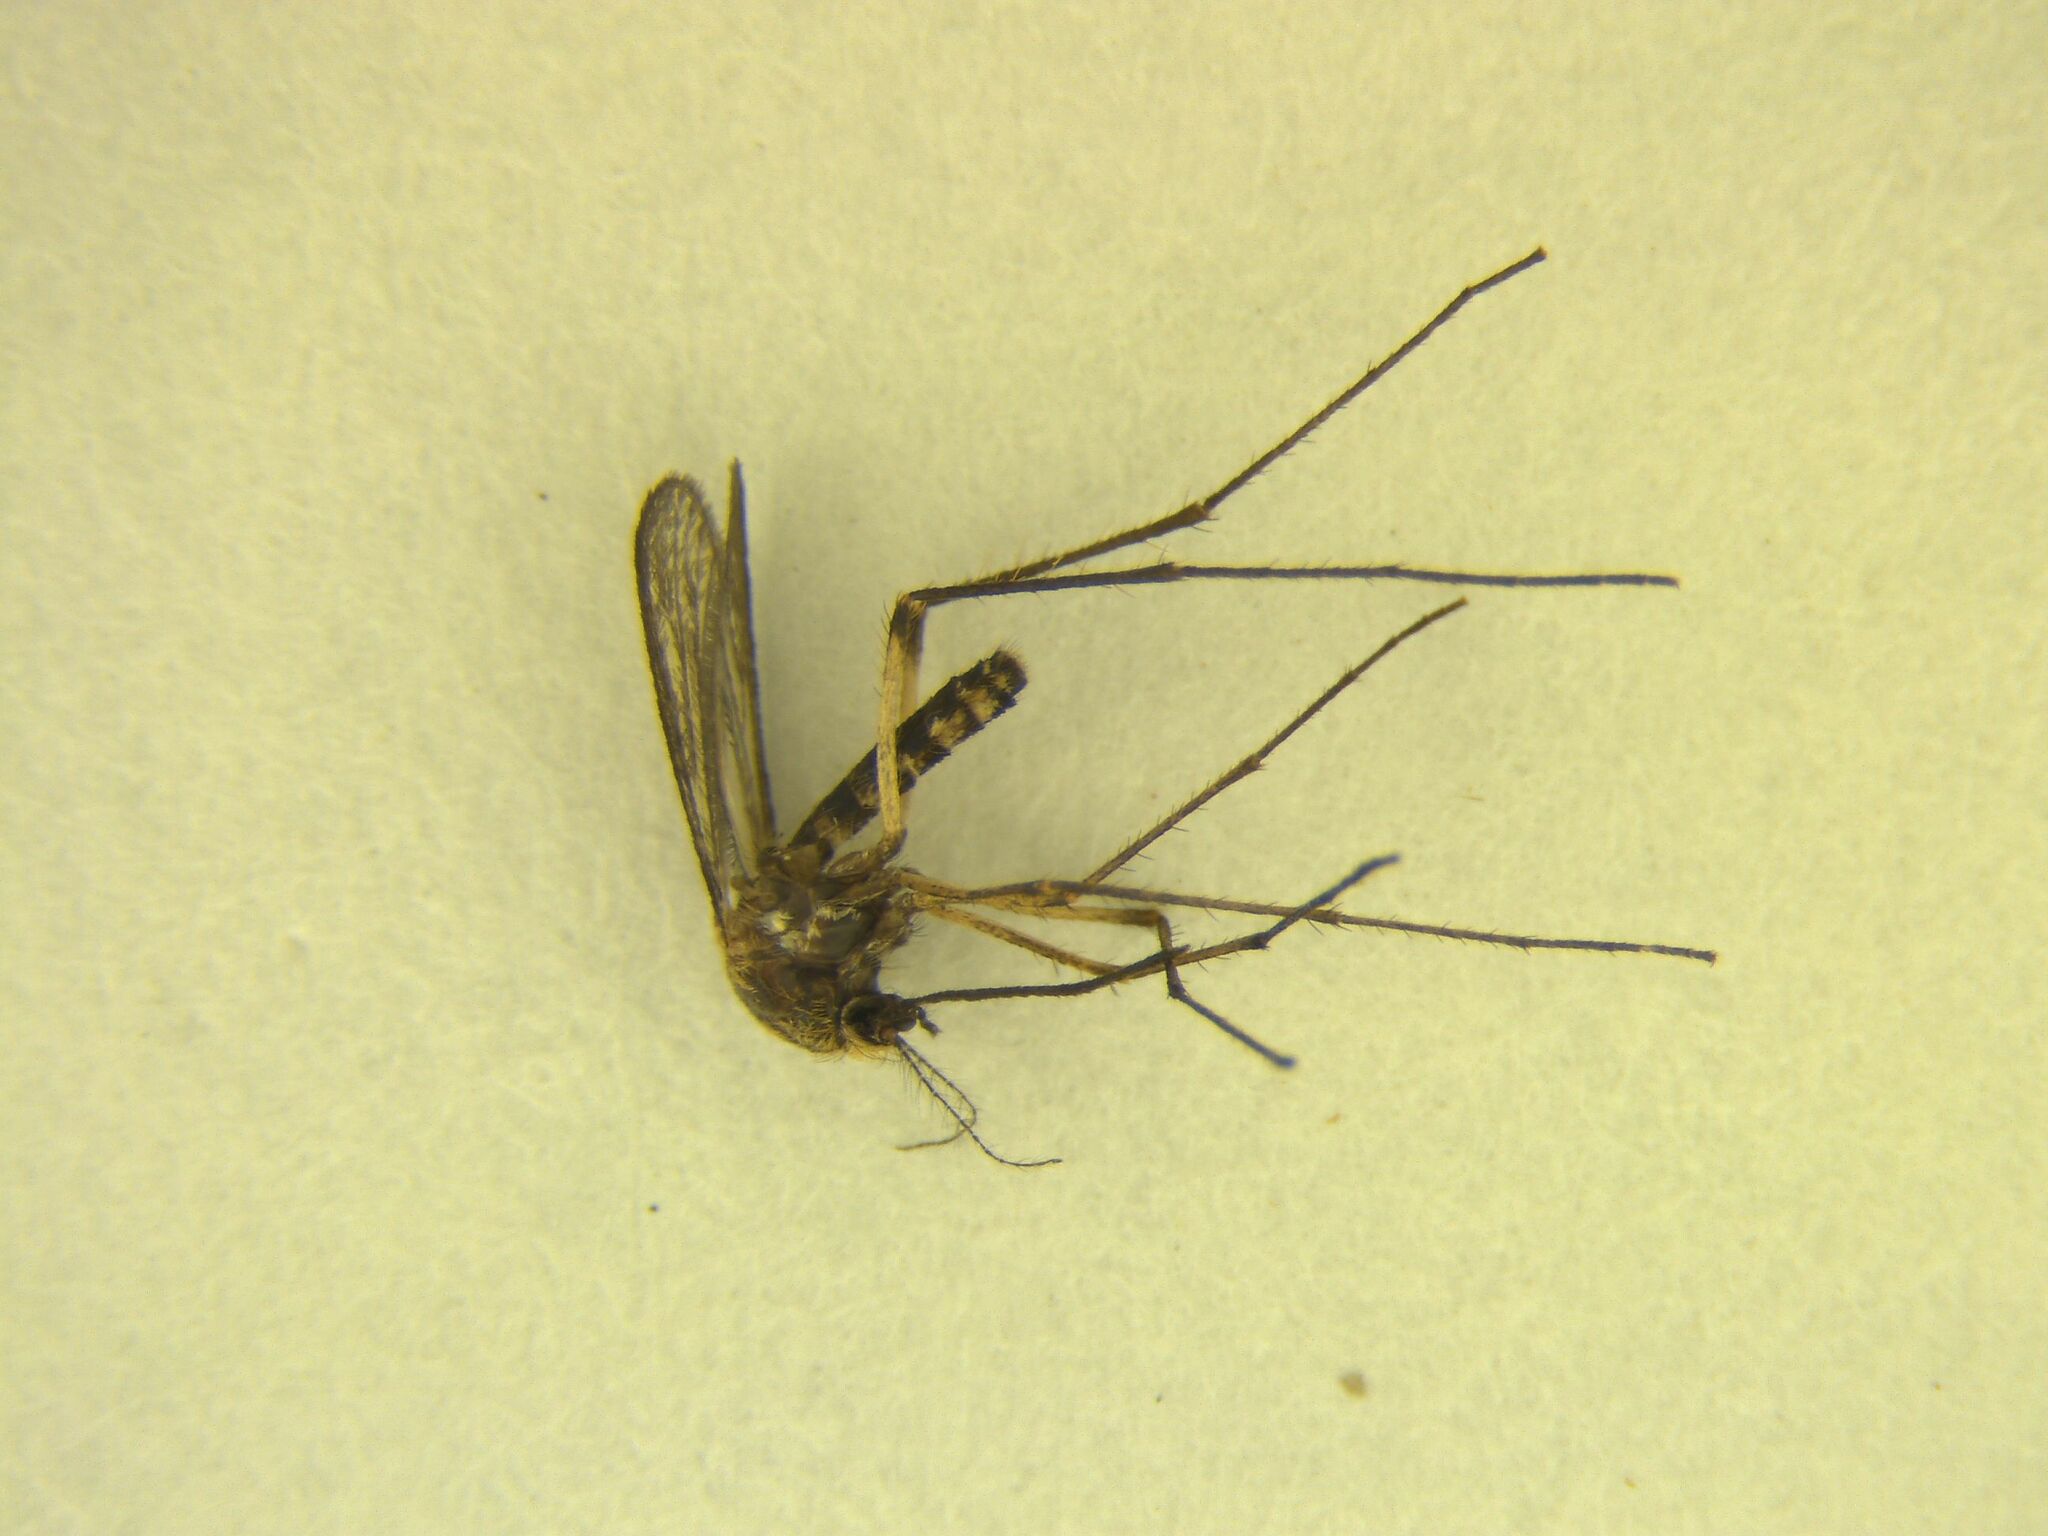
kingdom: Animalia
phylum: Arthropoda
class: Insecta
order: Diptera
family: Culicidae
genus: Coquillettidia
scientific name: Coquillettidia iracunda
